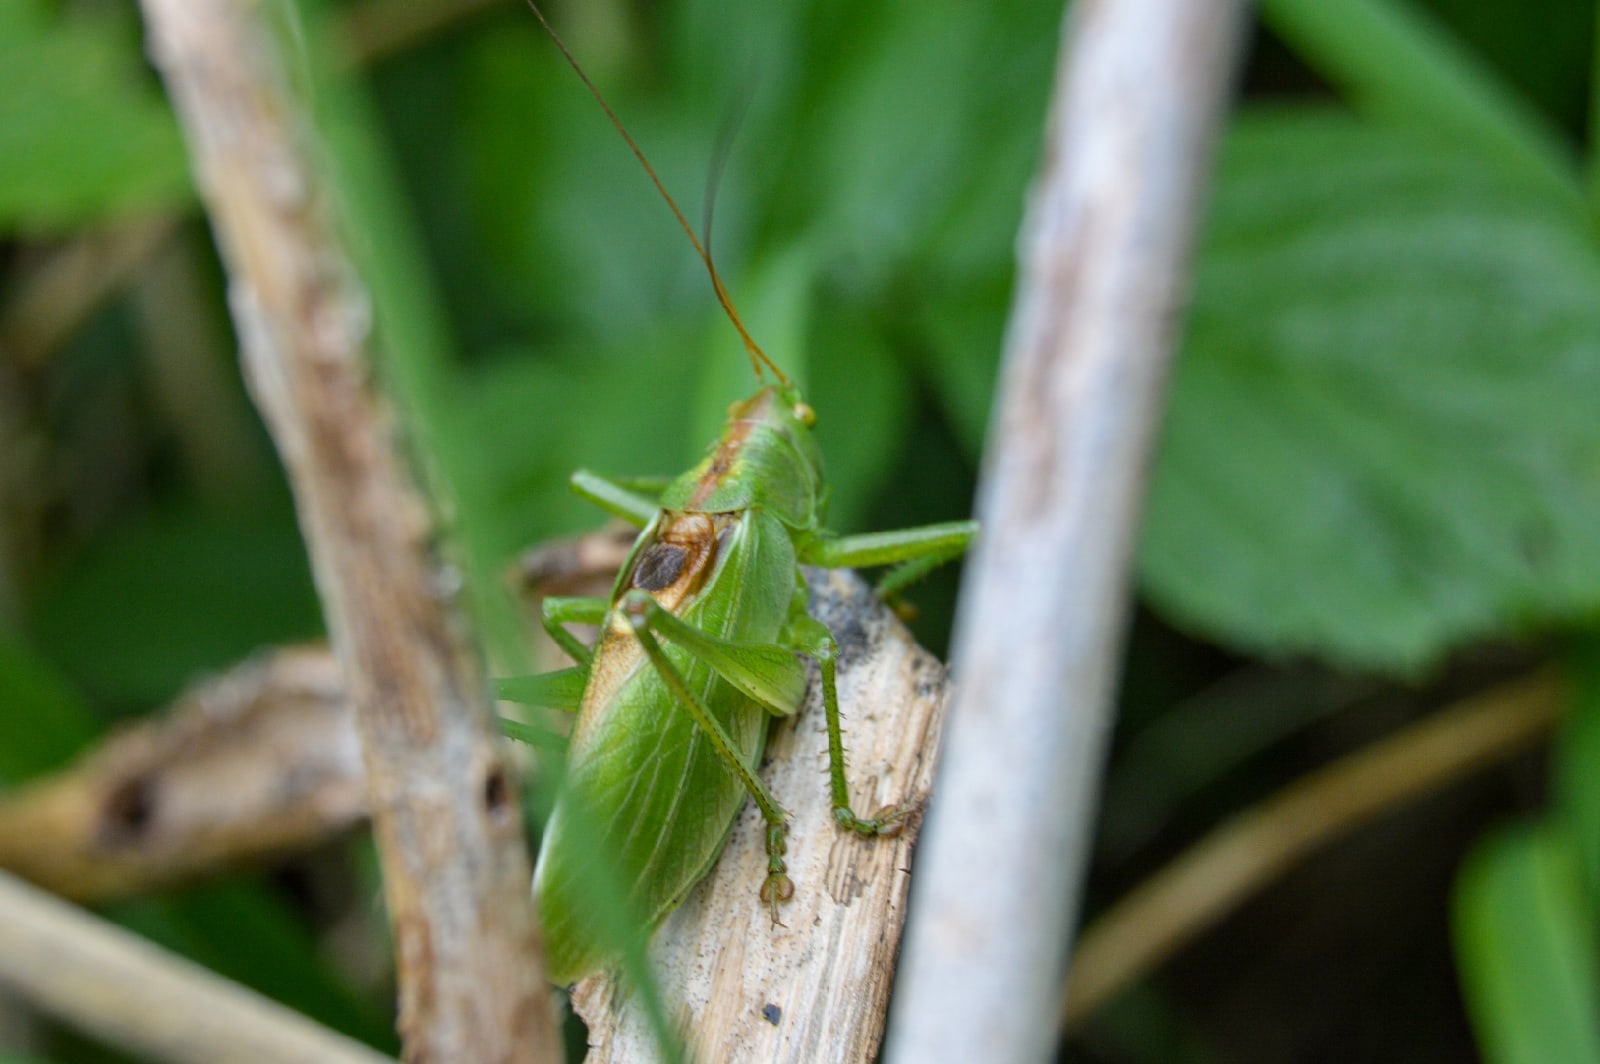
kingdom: Animalia
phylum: Arthropoda
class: Insecta
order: Orthoptera
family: Tettigoniidae
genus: Tettigonia
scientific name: Tettigonia cantans
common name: Upland green bush-cricket
